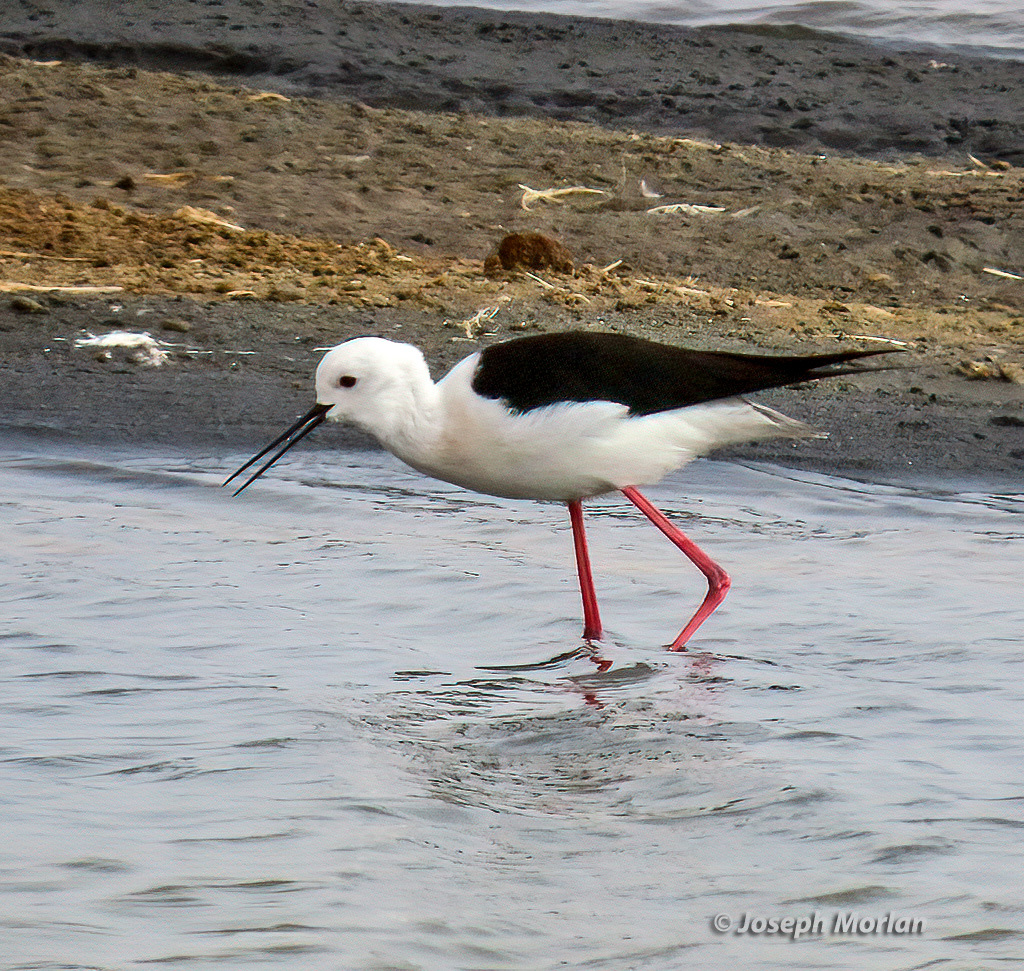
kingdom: Animalia
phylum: Chordata
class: Aves
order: Charadriiformes
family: Recurvirostridae
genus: Himantopus
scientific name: Himantopus himantopus
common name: Black-winged stilt
